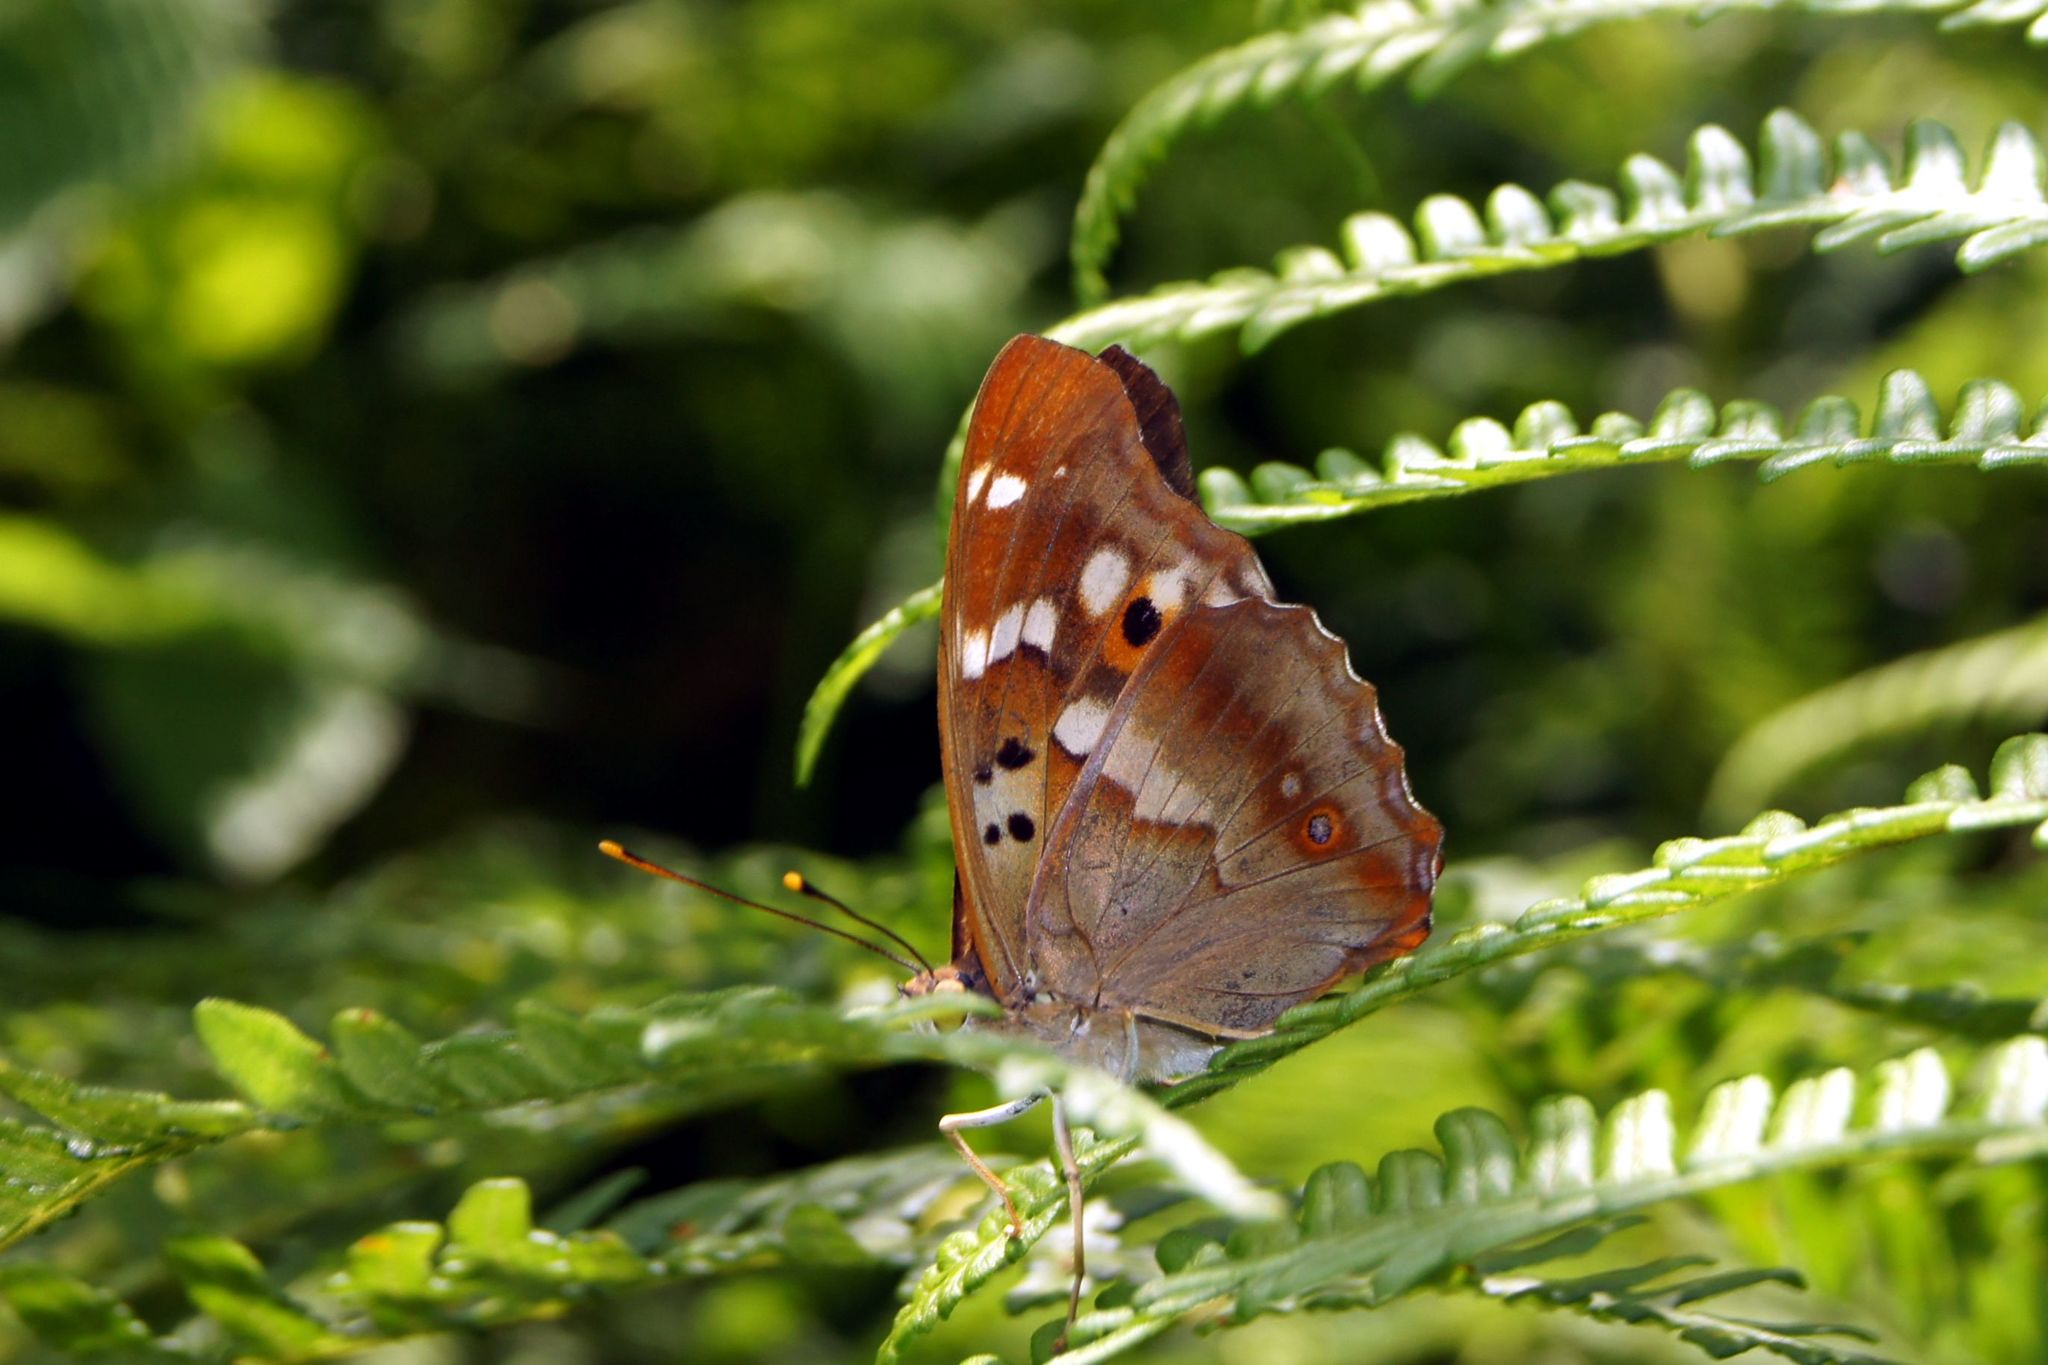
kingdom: Animalia
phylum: Arthropoda
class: Insecta
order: Lepidoptera
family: Nymphalidae
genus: Apatura
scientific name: Apatura ilia
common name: Lesser purple emperor
